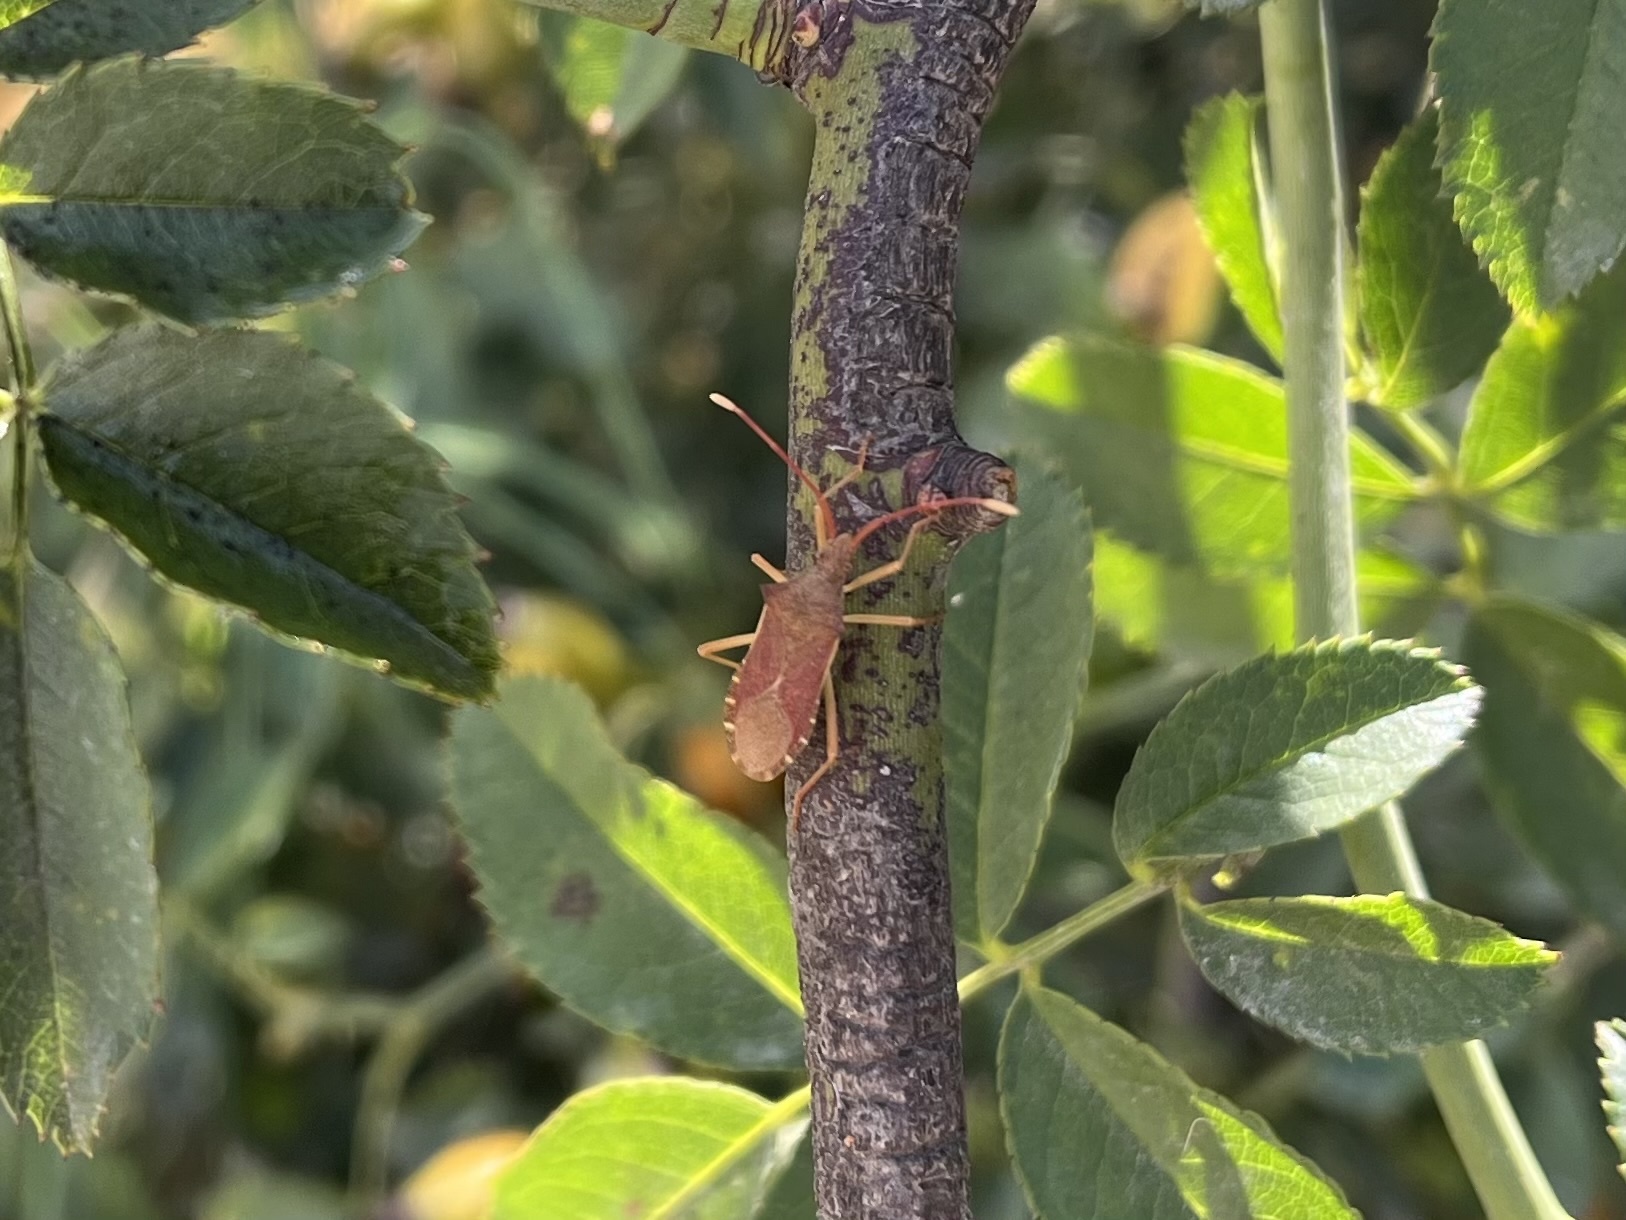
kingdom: Animalia
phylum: Arthropoda
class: Insecta
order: Hemiptera
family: Coreidae
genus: Gonocerus
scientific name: Gonocerus acuteangulatus
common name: Box bug
